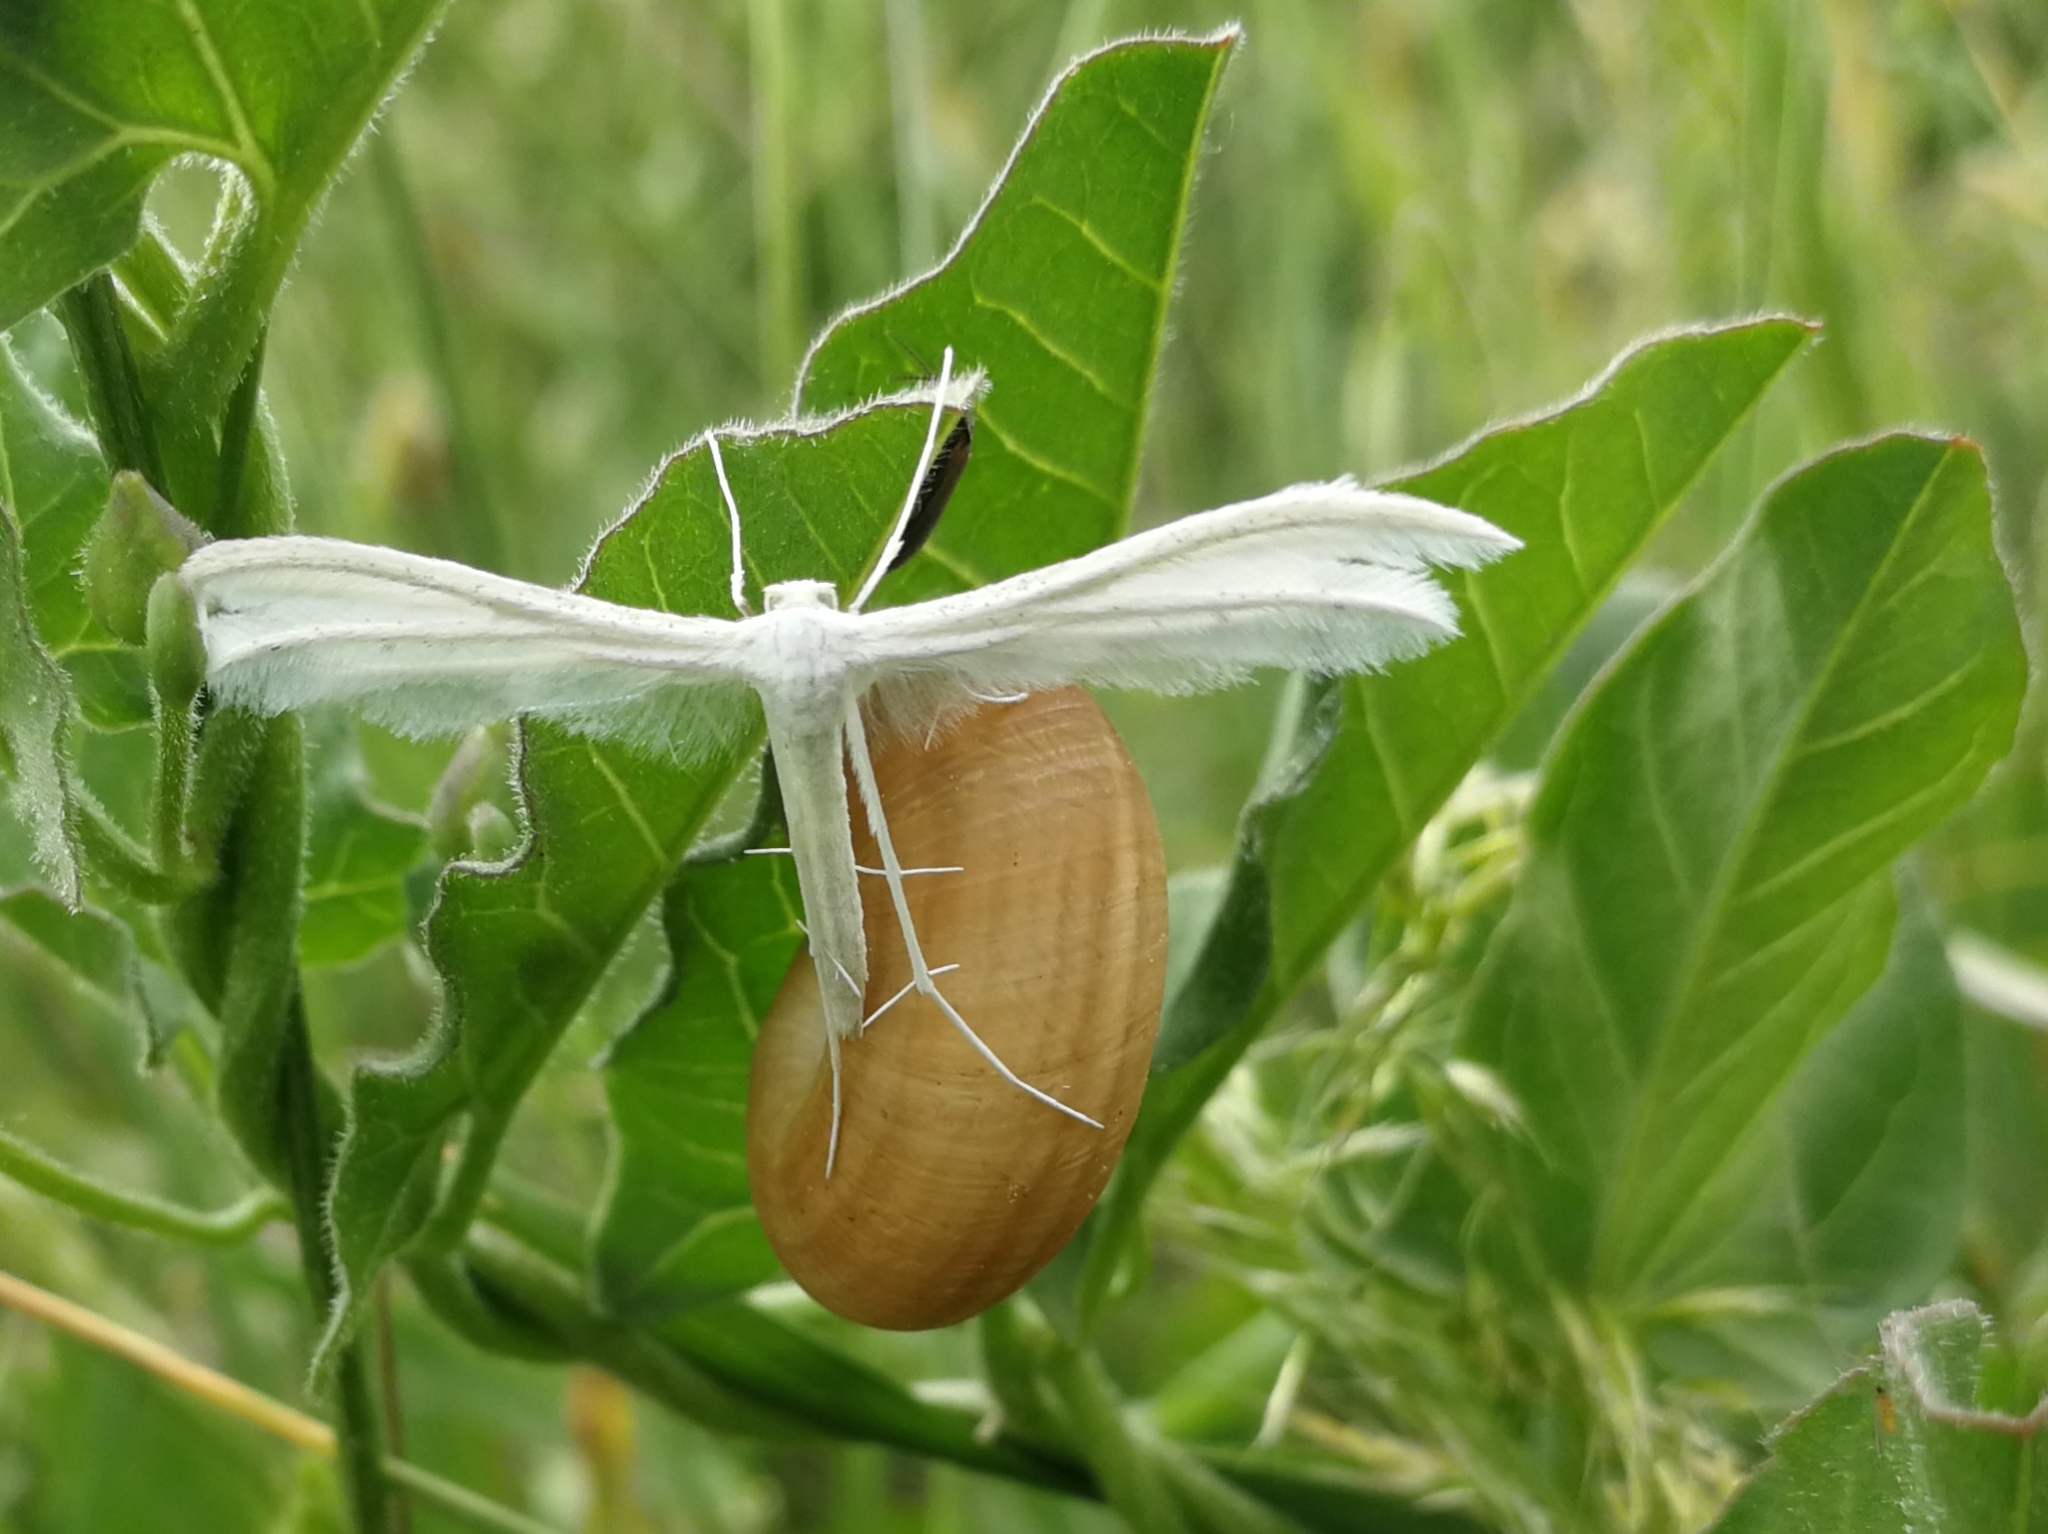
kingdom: Animalia
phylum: Arthropoda
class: Insecta
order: Lepidoptera
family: Pterophoridae
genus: Pterophorus
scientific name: Pterophorus pentadactyla
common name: White plume moth
